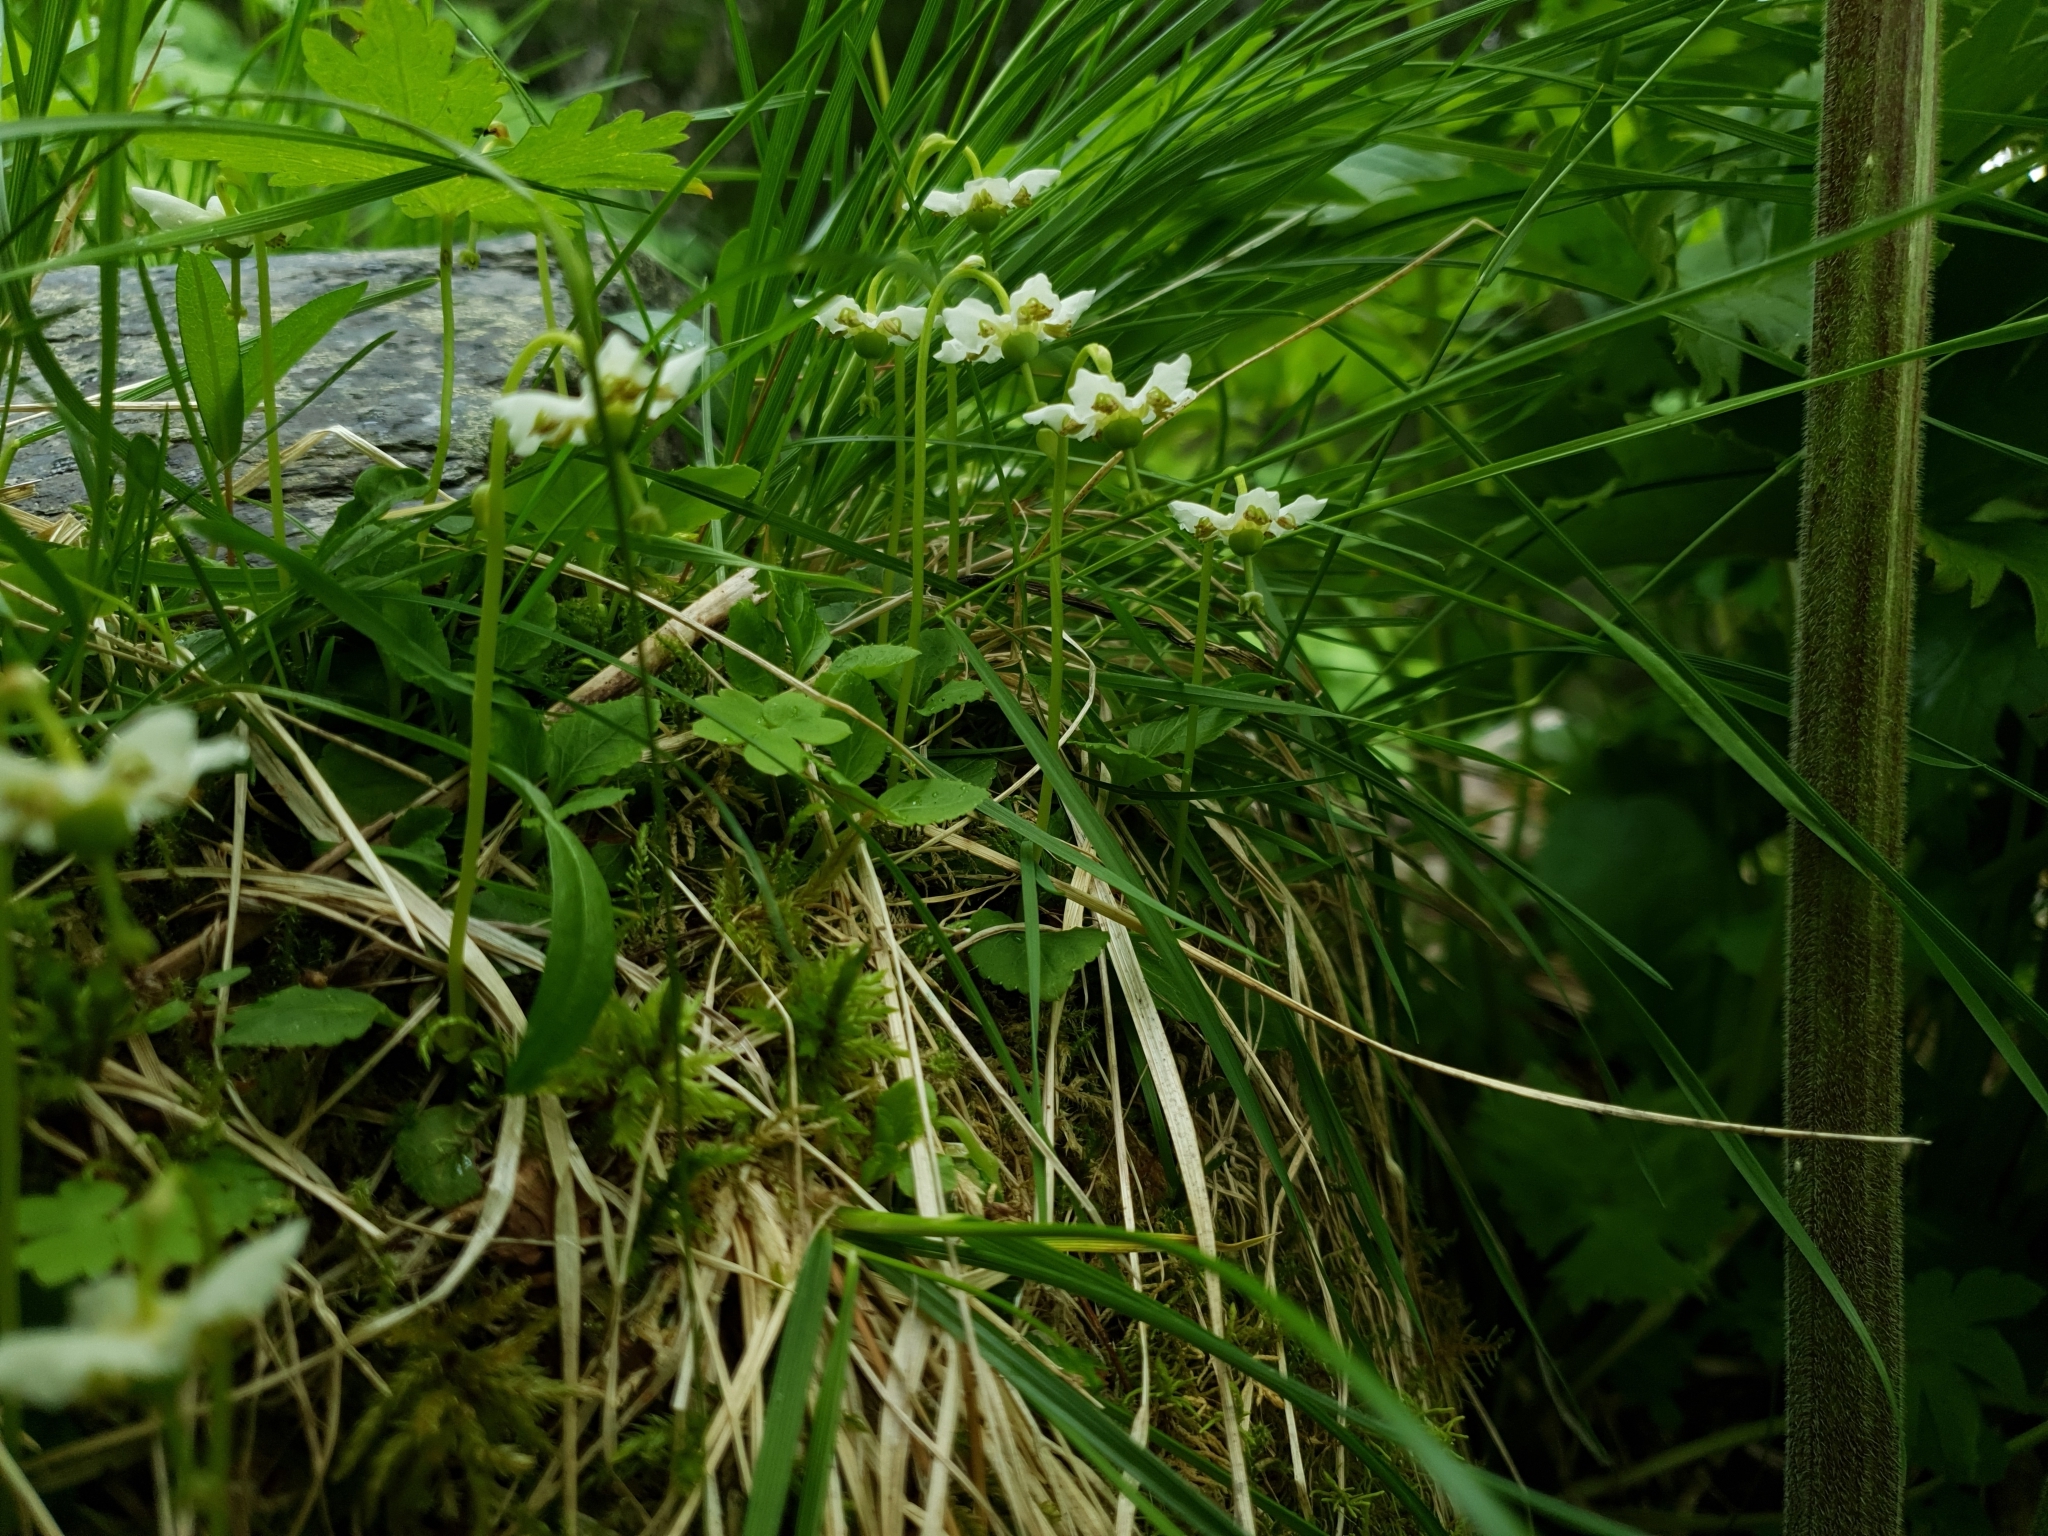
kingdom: Plantae
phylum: Tracheophyta
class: Magnoliopsida
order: Ericales
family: Ericaceae
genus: Moneses
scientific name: Moneses uniflora
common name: One-flowered wintergreen
